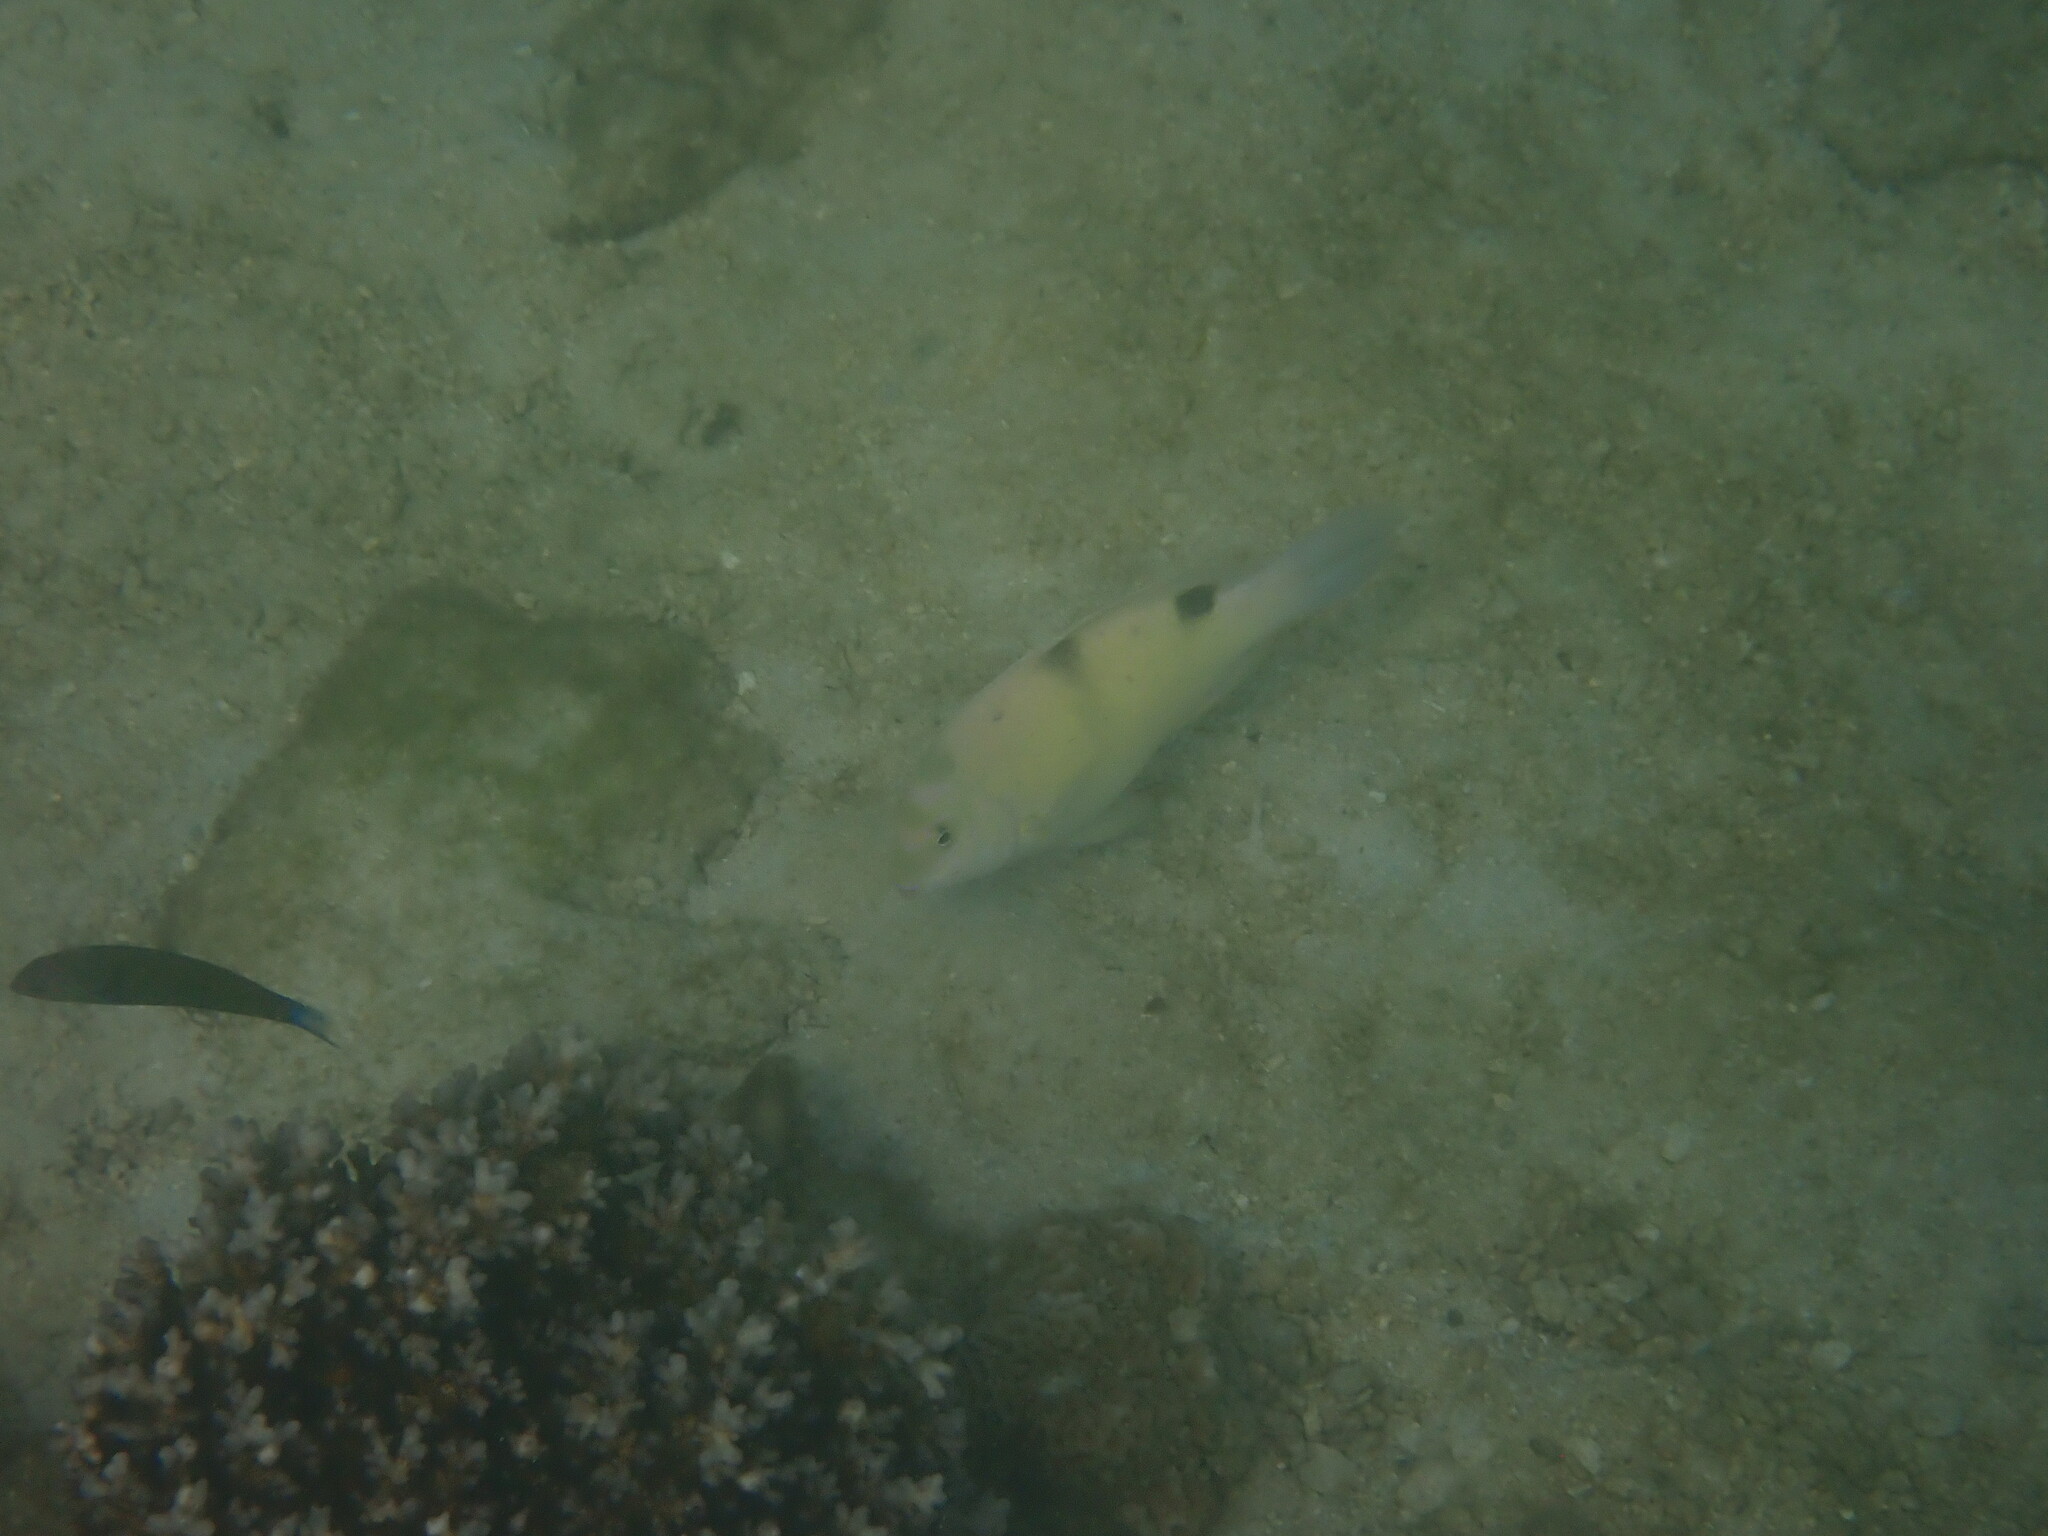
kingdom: Animalia
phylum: Chordata
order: Perciformes
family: Pomacentridae
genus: Dischistodus
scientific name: Dischistodus perspicillatus
